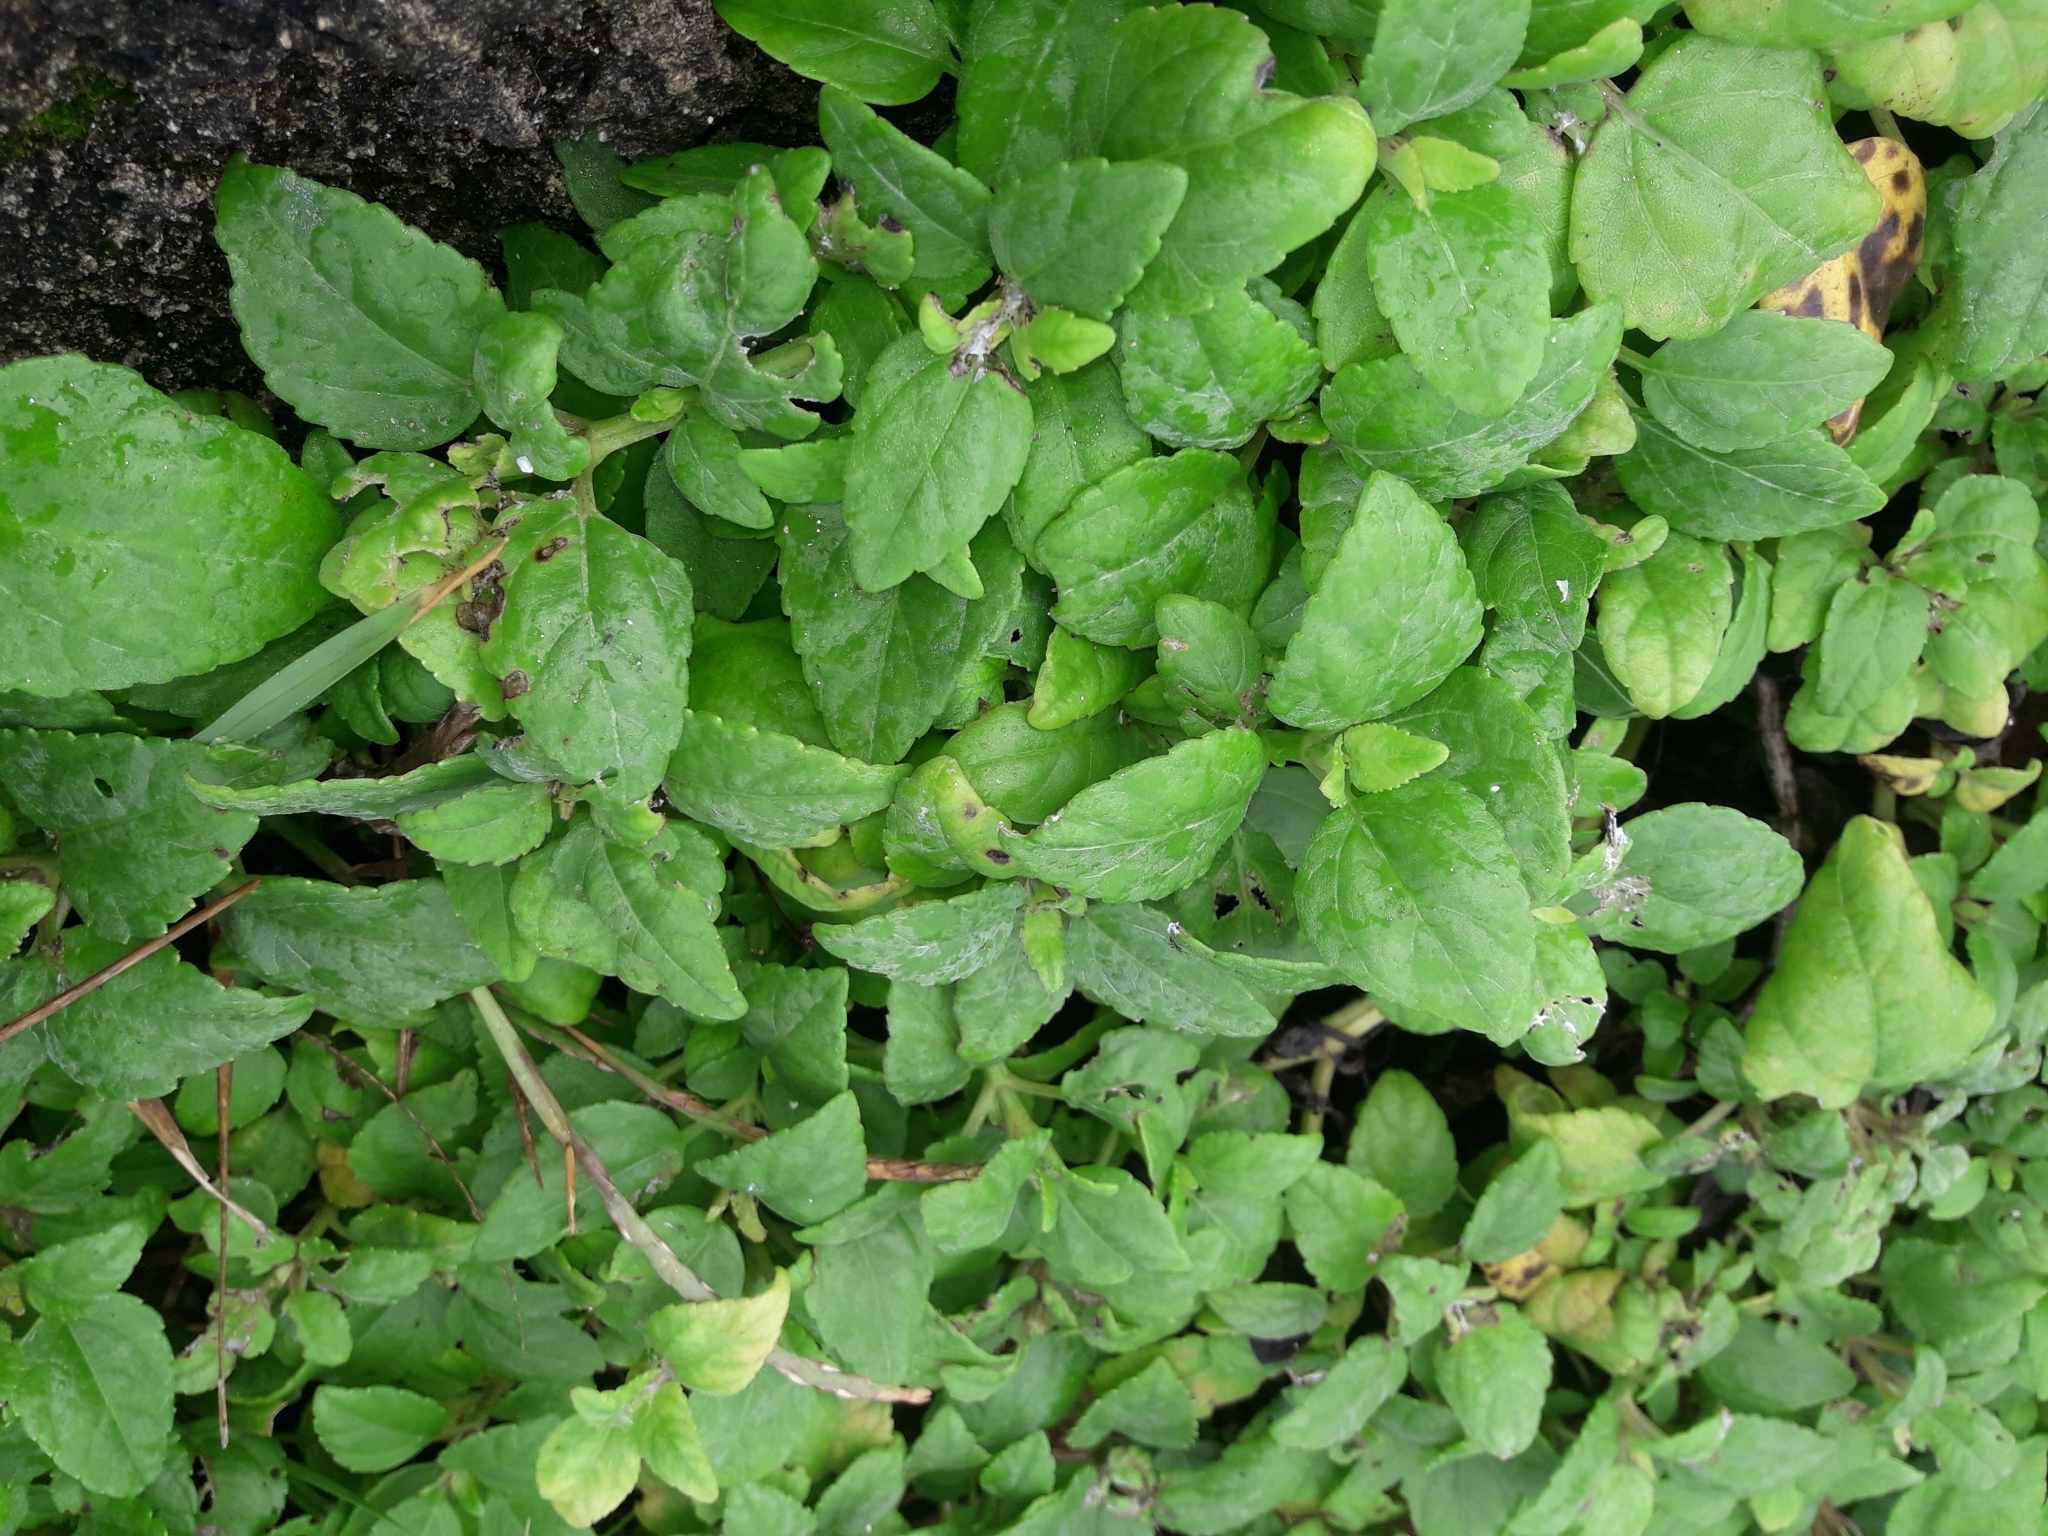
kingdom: Plantae
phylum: Tracheophyta
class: Magnoliopsida
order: Asterales
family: Asteraceae
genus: Wollastonia
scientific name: Wollastonia uniflora
